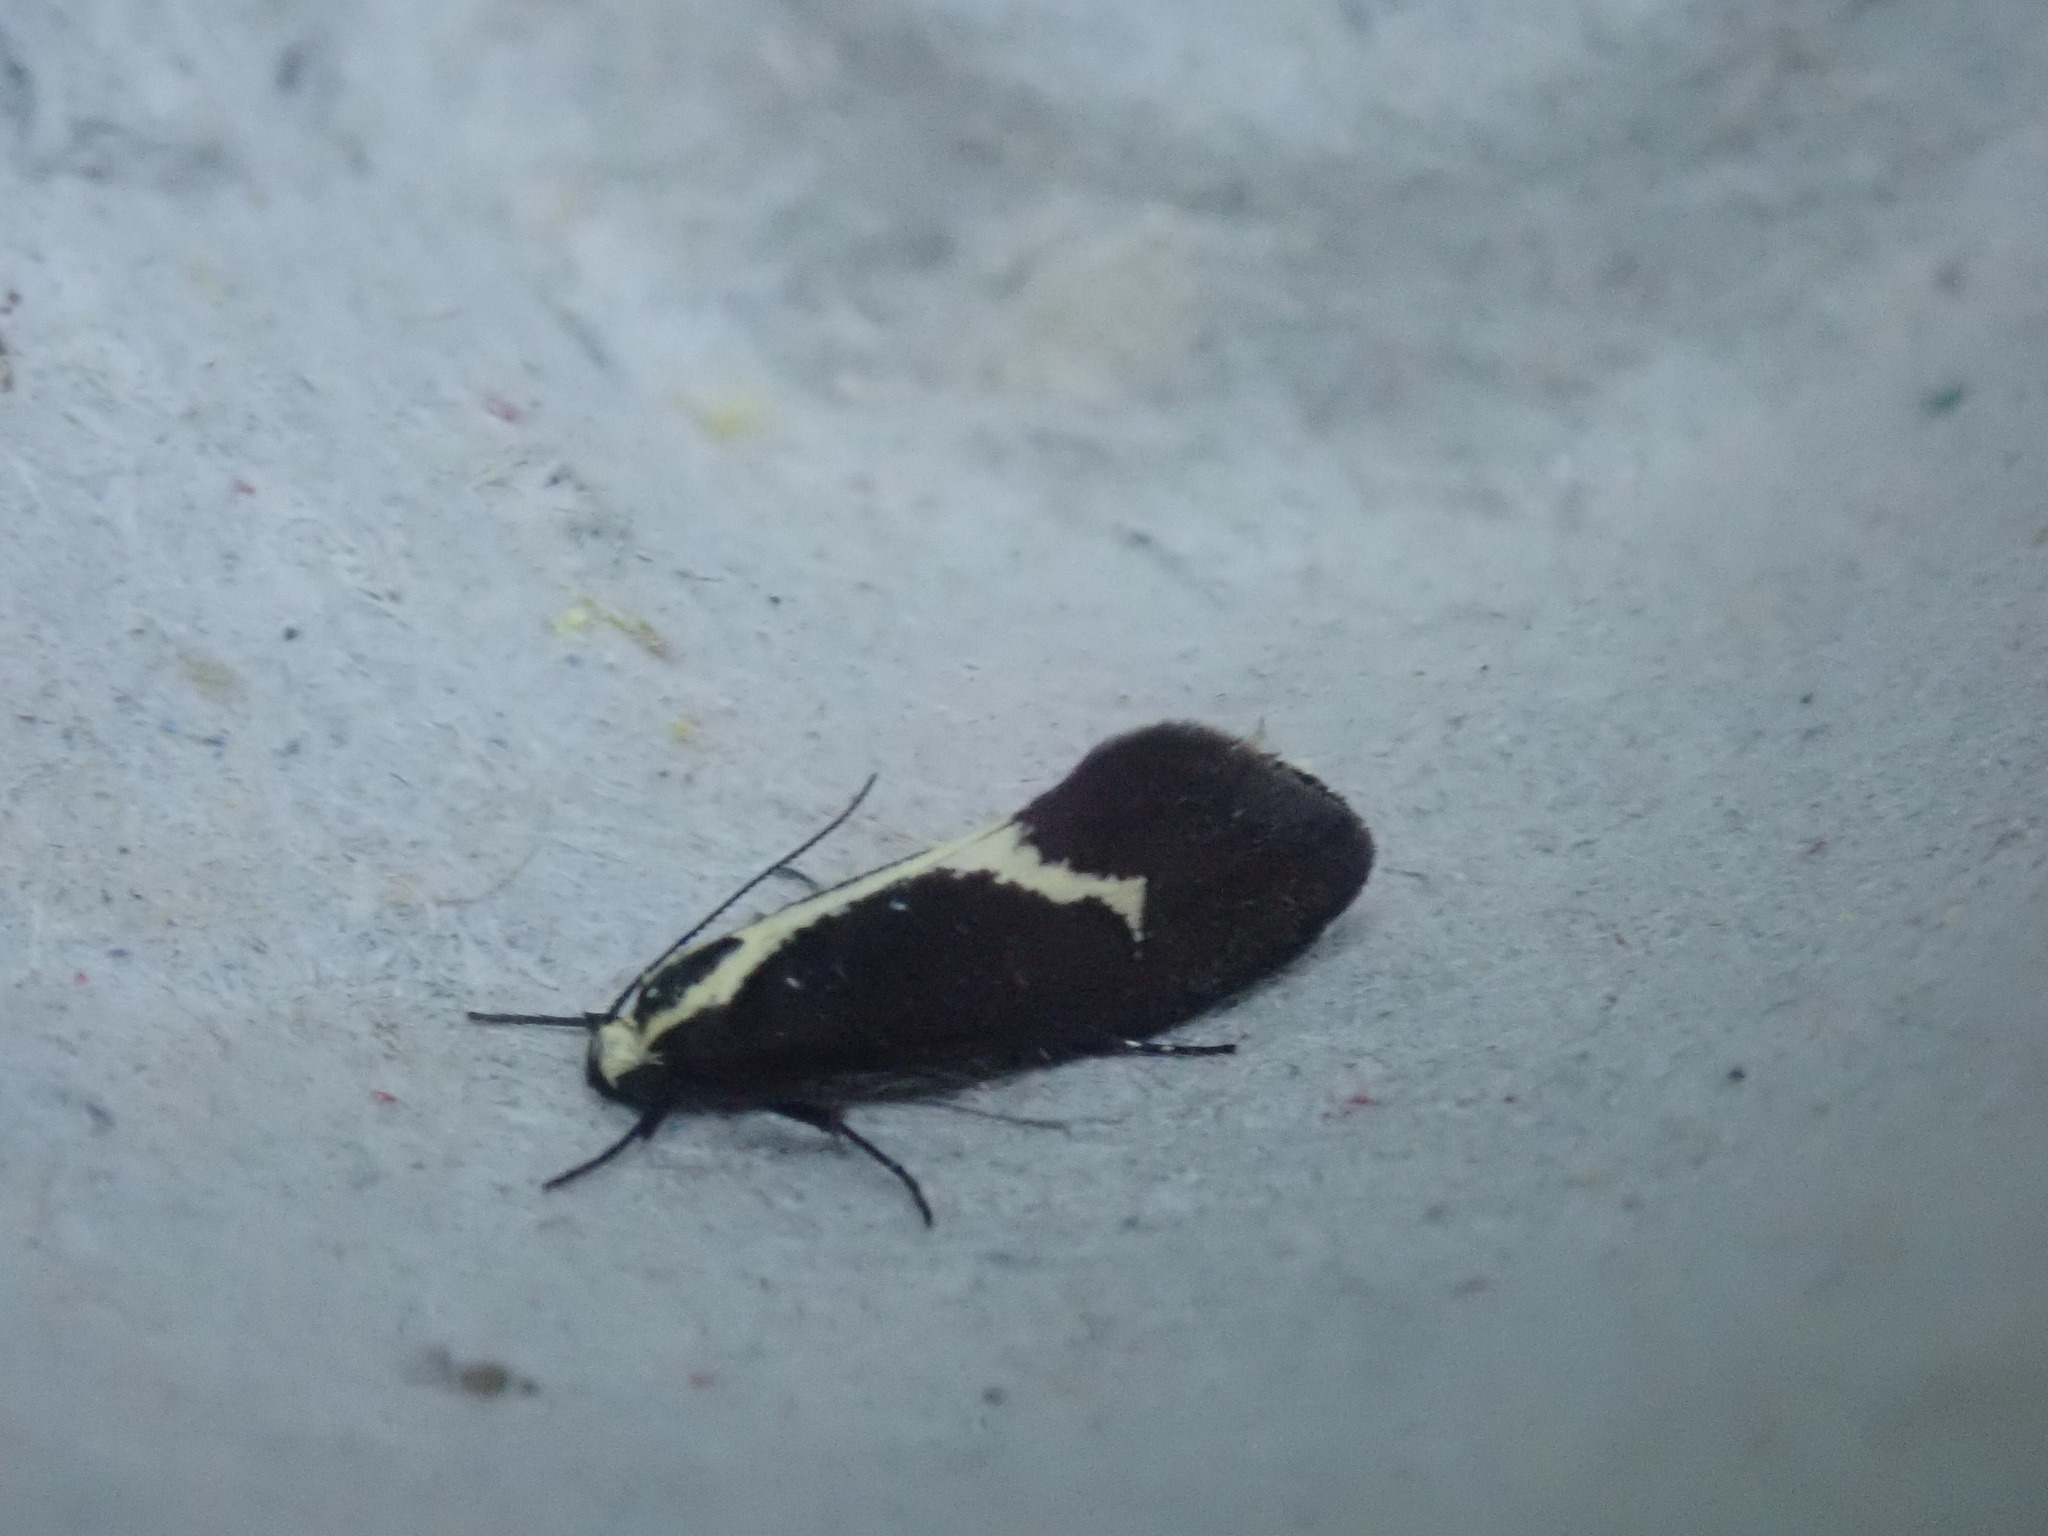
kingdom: Animalia
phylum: Arthropoda
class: Insecta
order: Lepidoptera
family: Oecophoridae
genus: Polix
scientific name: Polix coloradella
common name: Skunk moth
